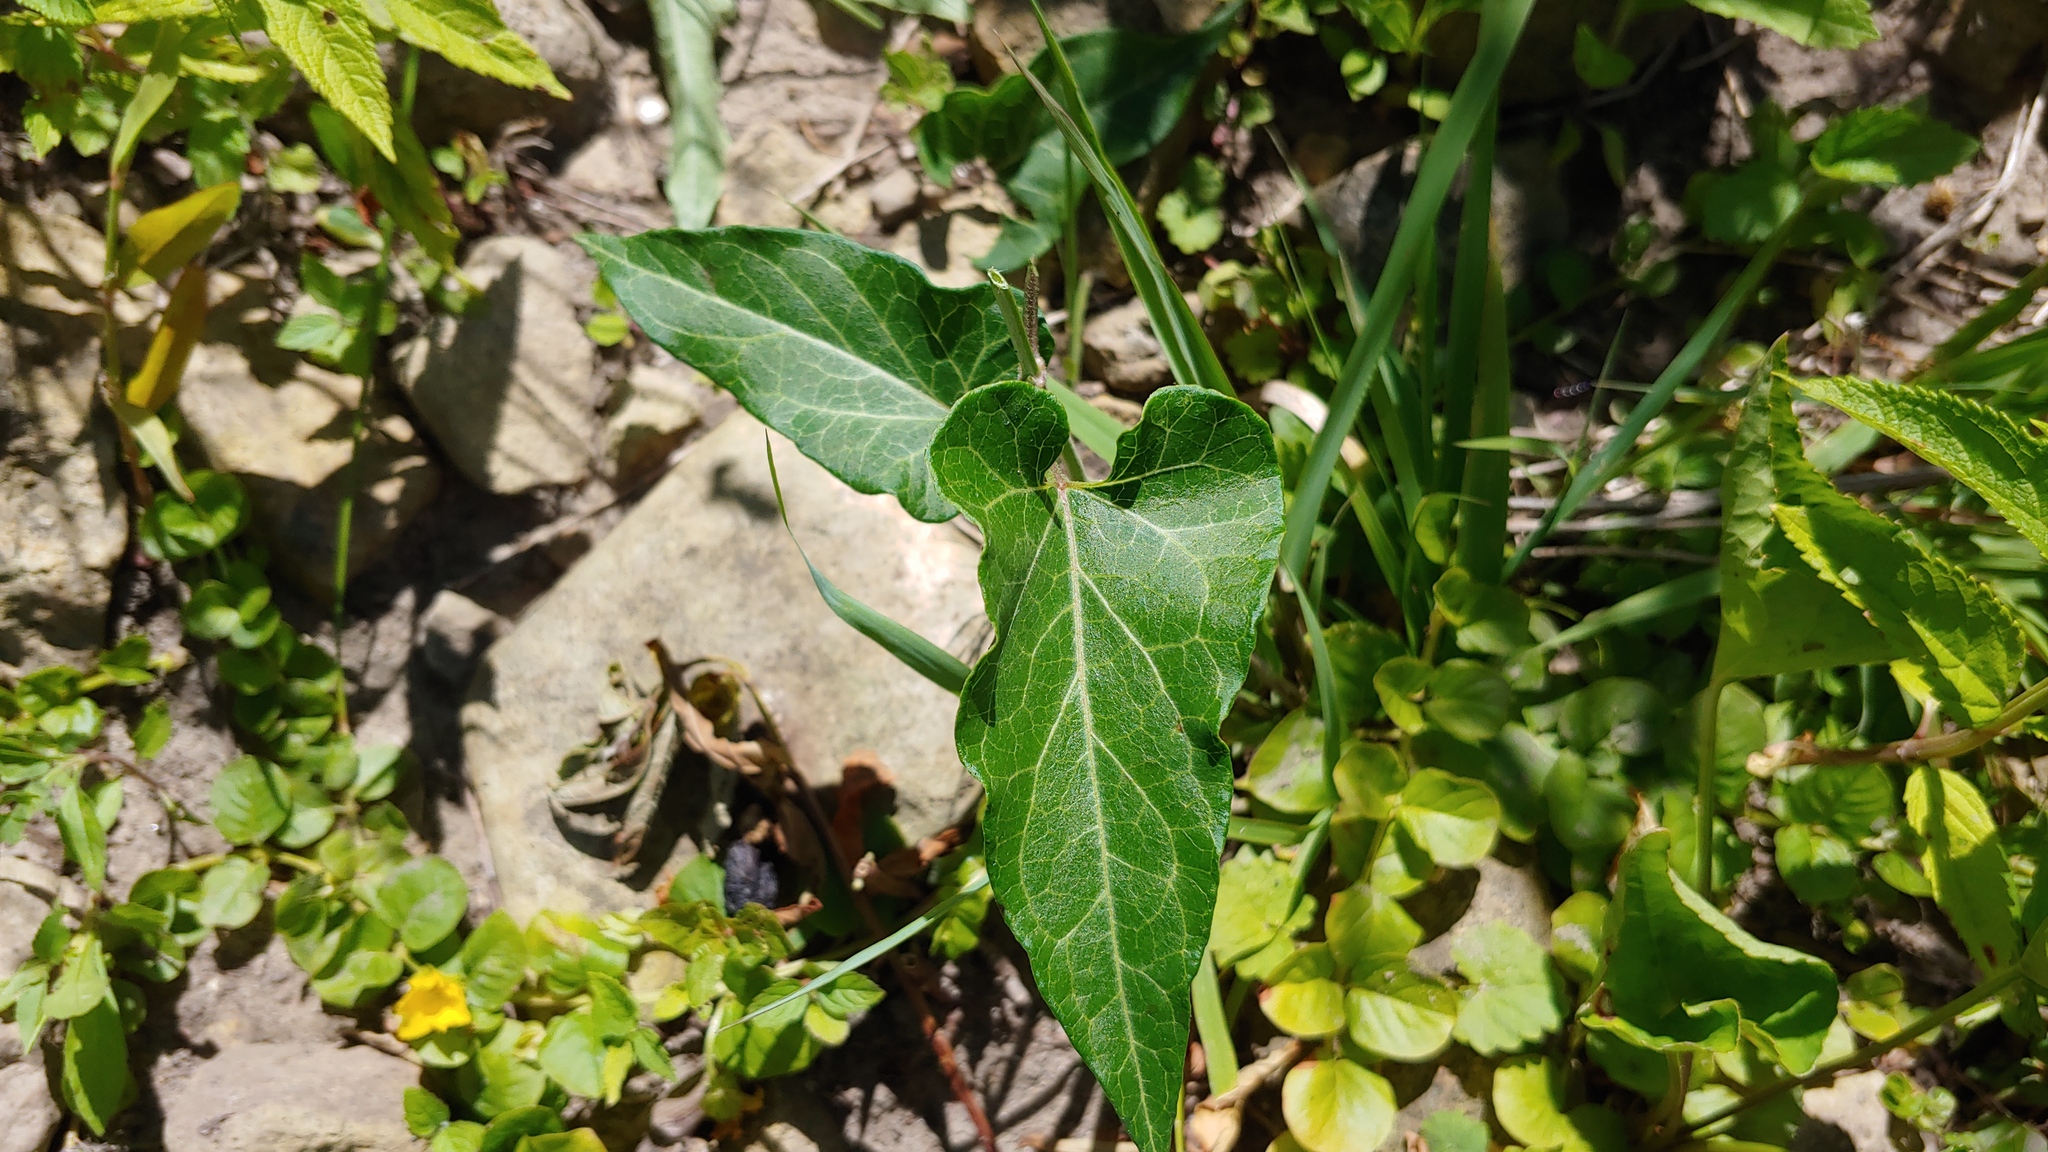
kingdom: Plantae
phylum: Tracheophyta
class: Magnoliopsida
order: Gentianales
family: Apocynaceae
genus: Cynanchum
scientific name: Cynanchum laeve
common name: Sandvine
